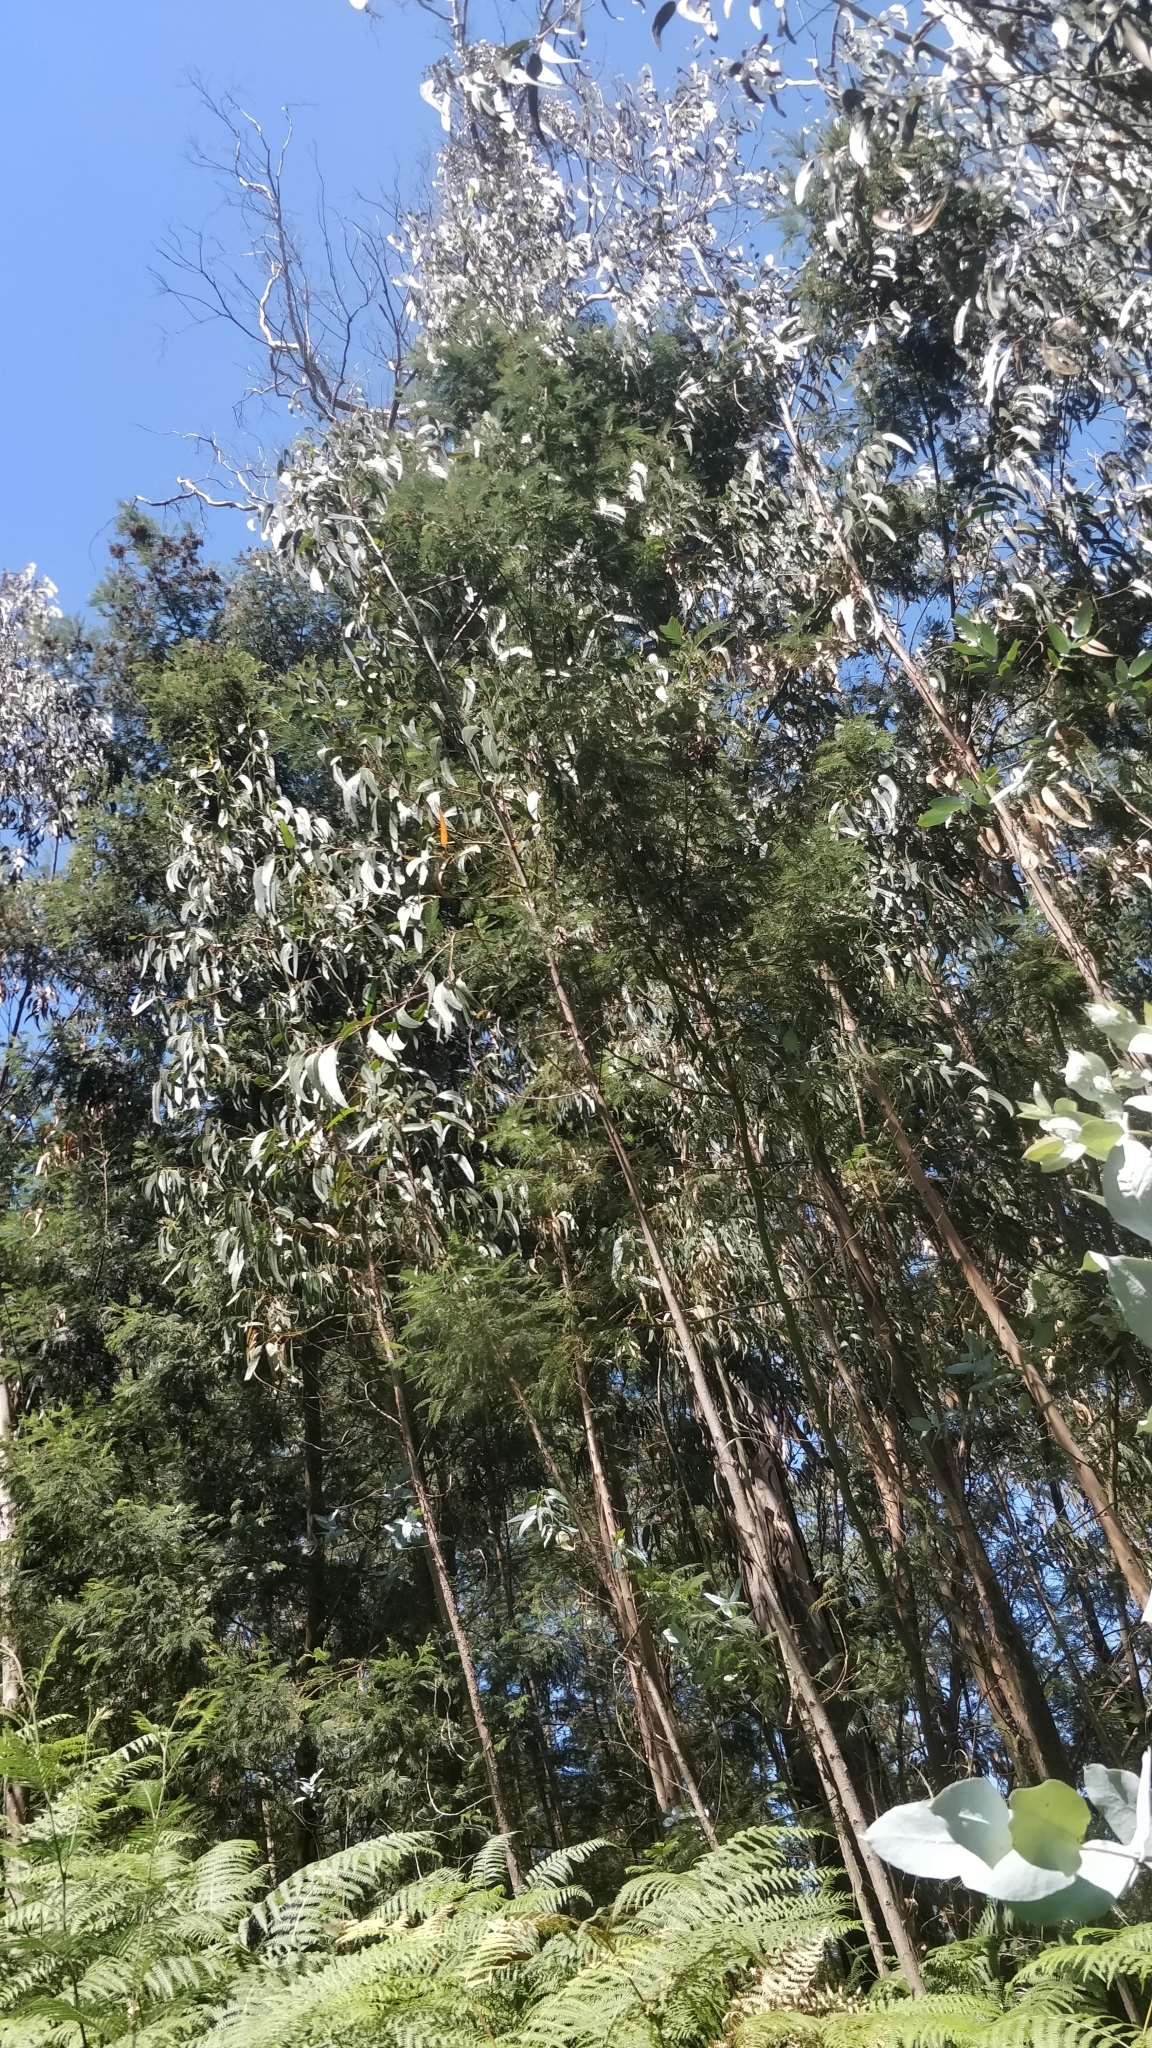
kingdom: Plantae
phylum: Tracheophyta
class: Magnoliopsida
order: Myrtales
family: Myrtaceae
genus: Eucalyptus
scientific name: Eucalyptus globulus
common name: Southern blue-gum
